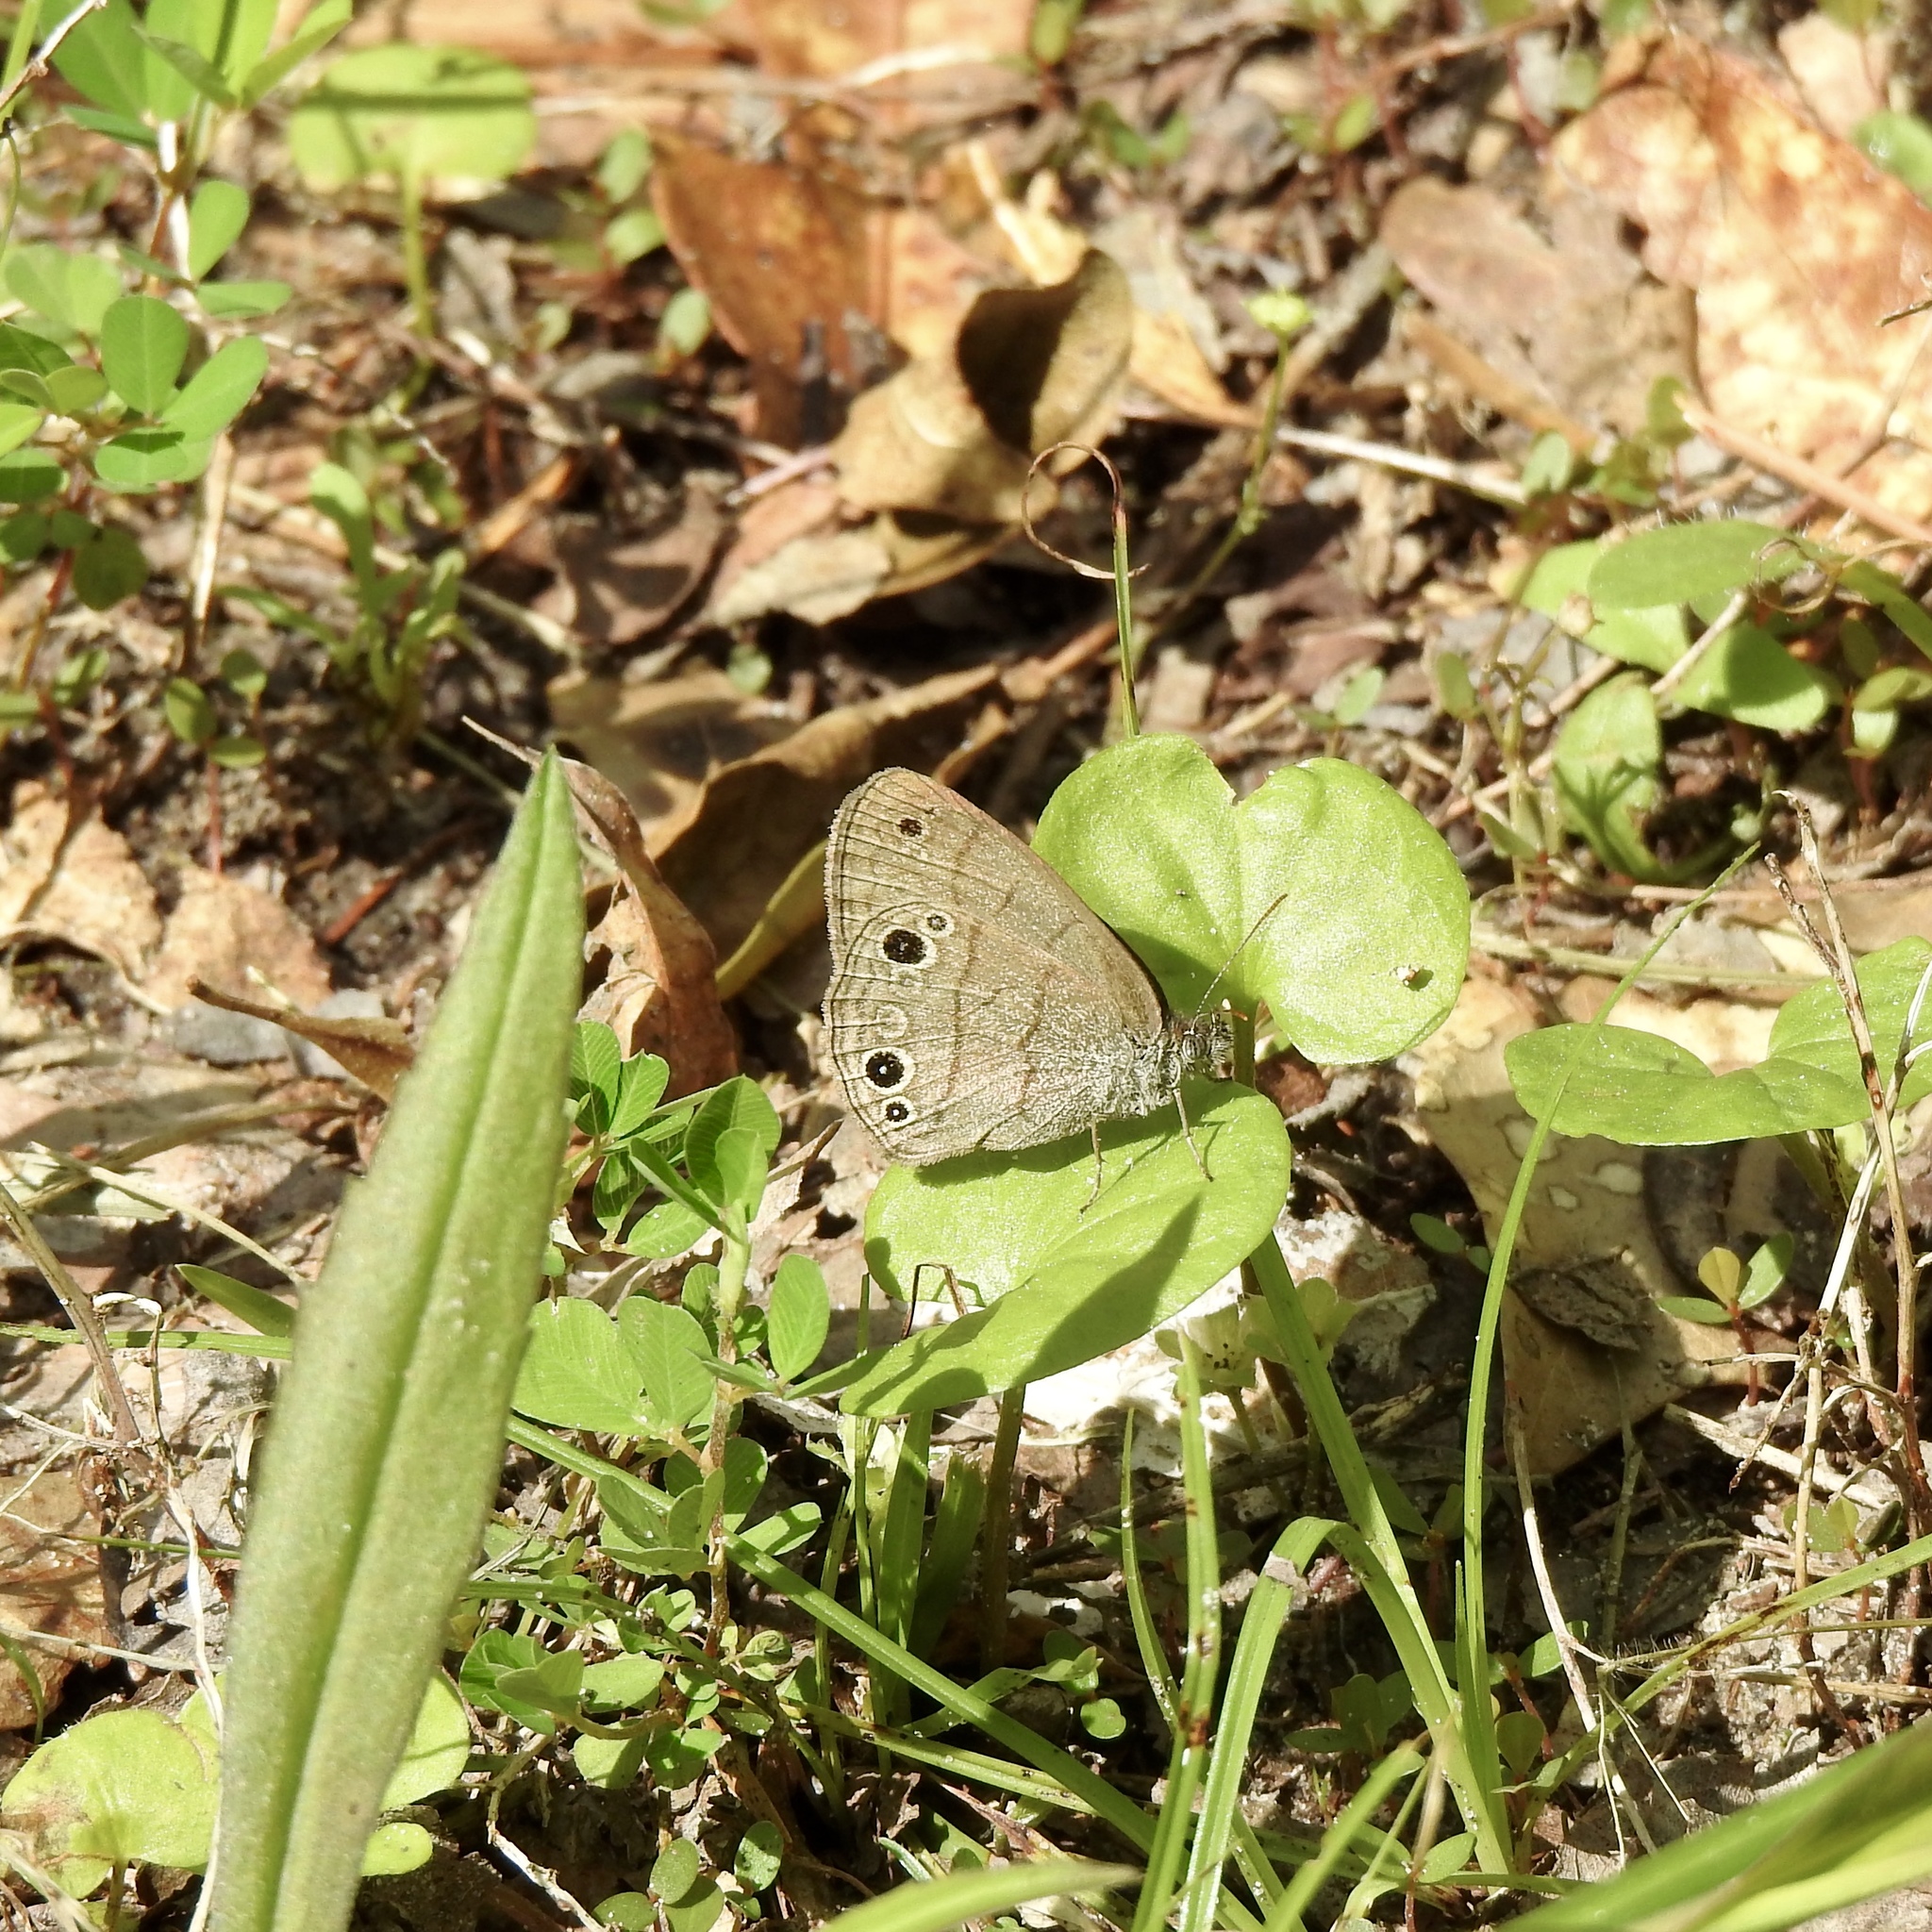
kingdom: Animalia
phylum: Arthropoda
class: Insecta
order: Lepidoptera
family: Nymphalidae
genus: Hermeuptychia
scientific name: Hermeuptychia hermes
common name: Hermes satyr
